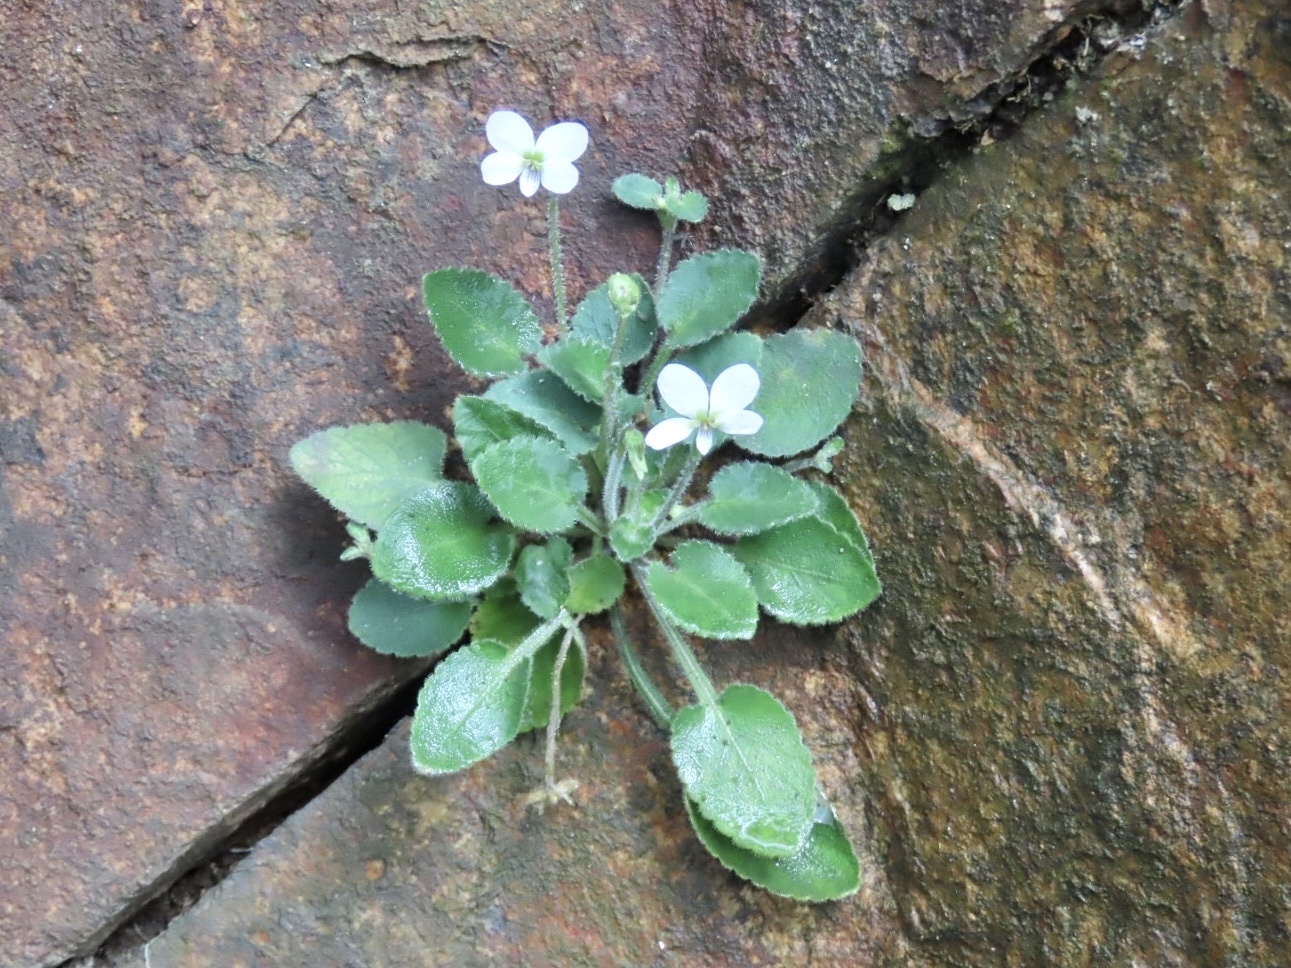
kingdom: Plantae
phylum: Tracheophyta
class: Magnoliopsida
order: Malpighiales
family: Violaceae
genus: Viola
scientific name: Viola diffusa
